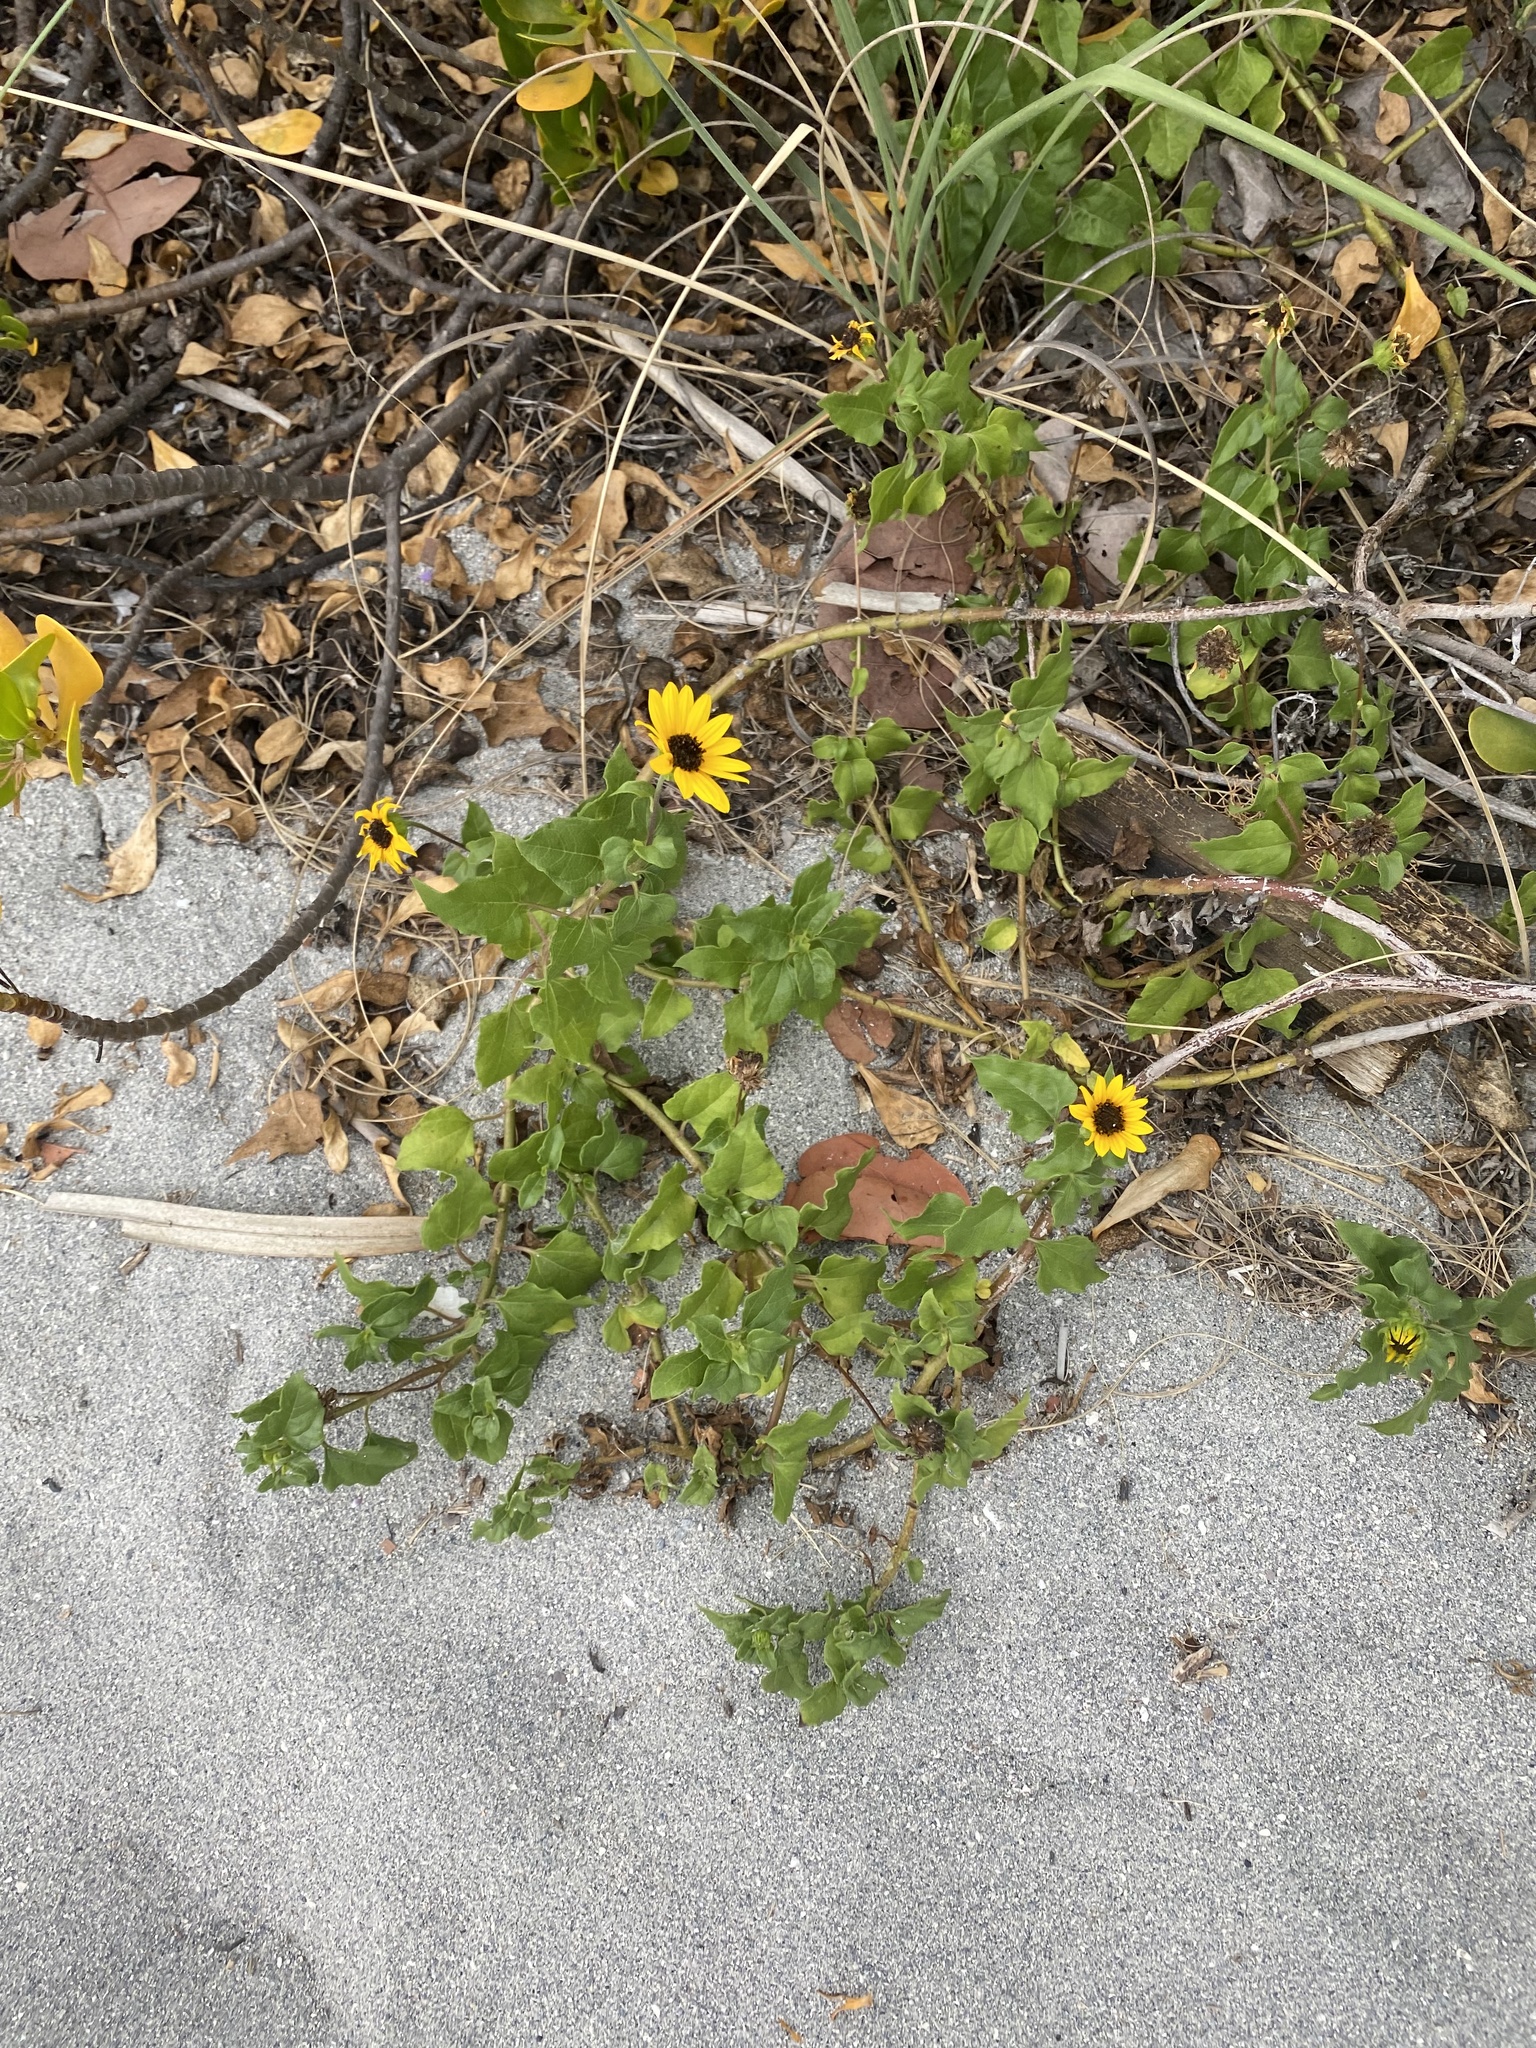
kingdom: Plantae
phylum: Tracheophyta
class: Magnoliopsida
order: Asterales
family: Asteraceae
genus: Helianthus
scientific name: Helianthus debilis
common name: Weak sunflower
